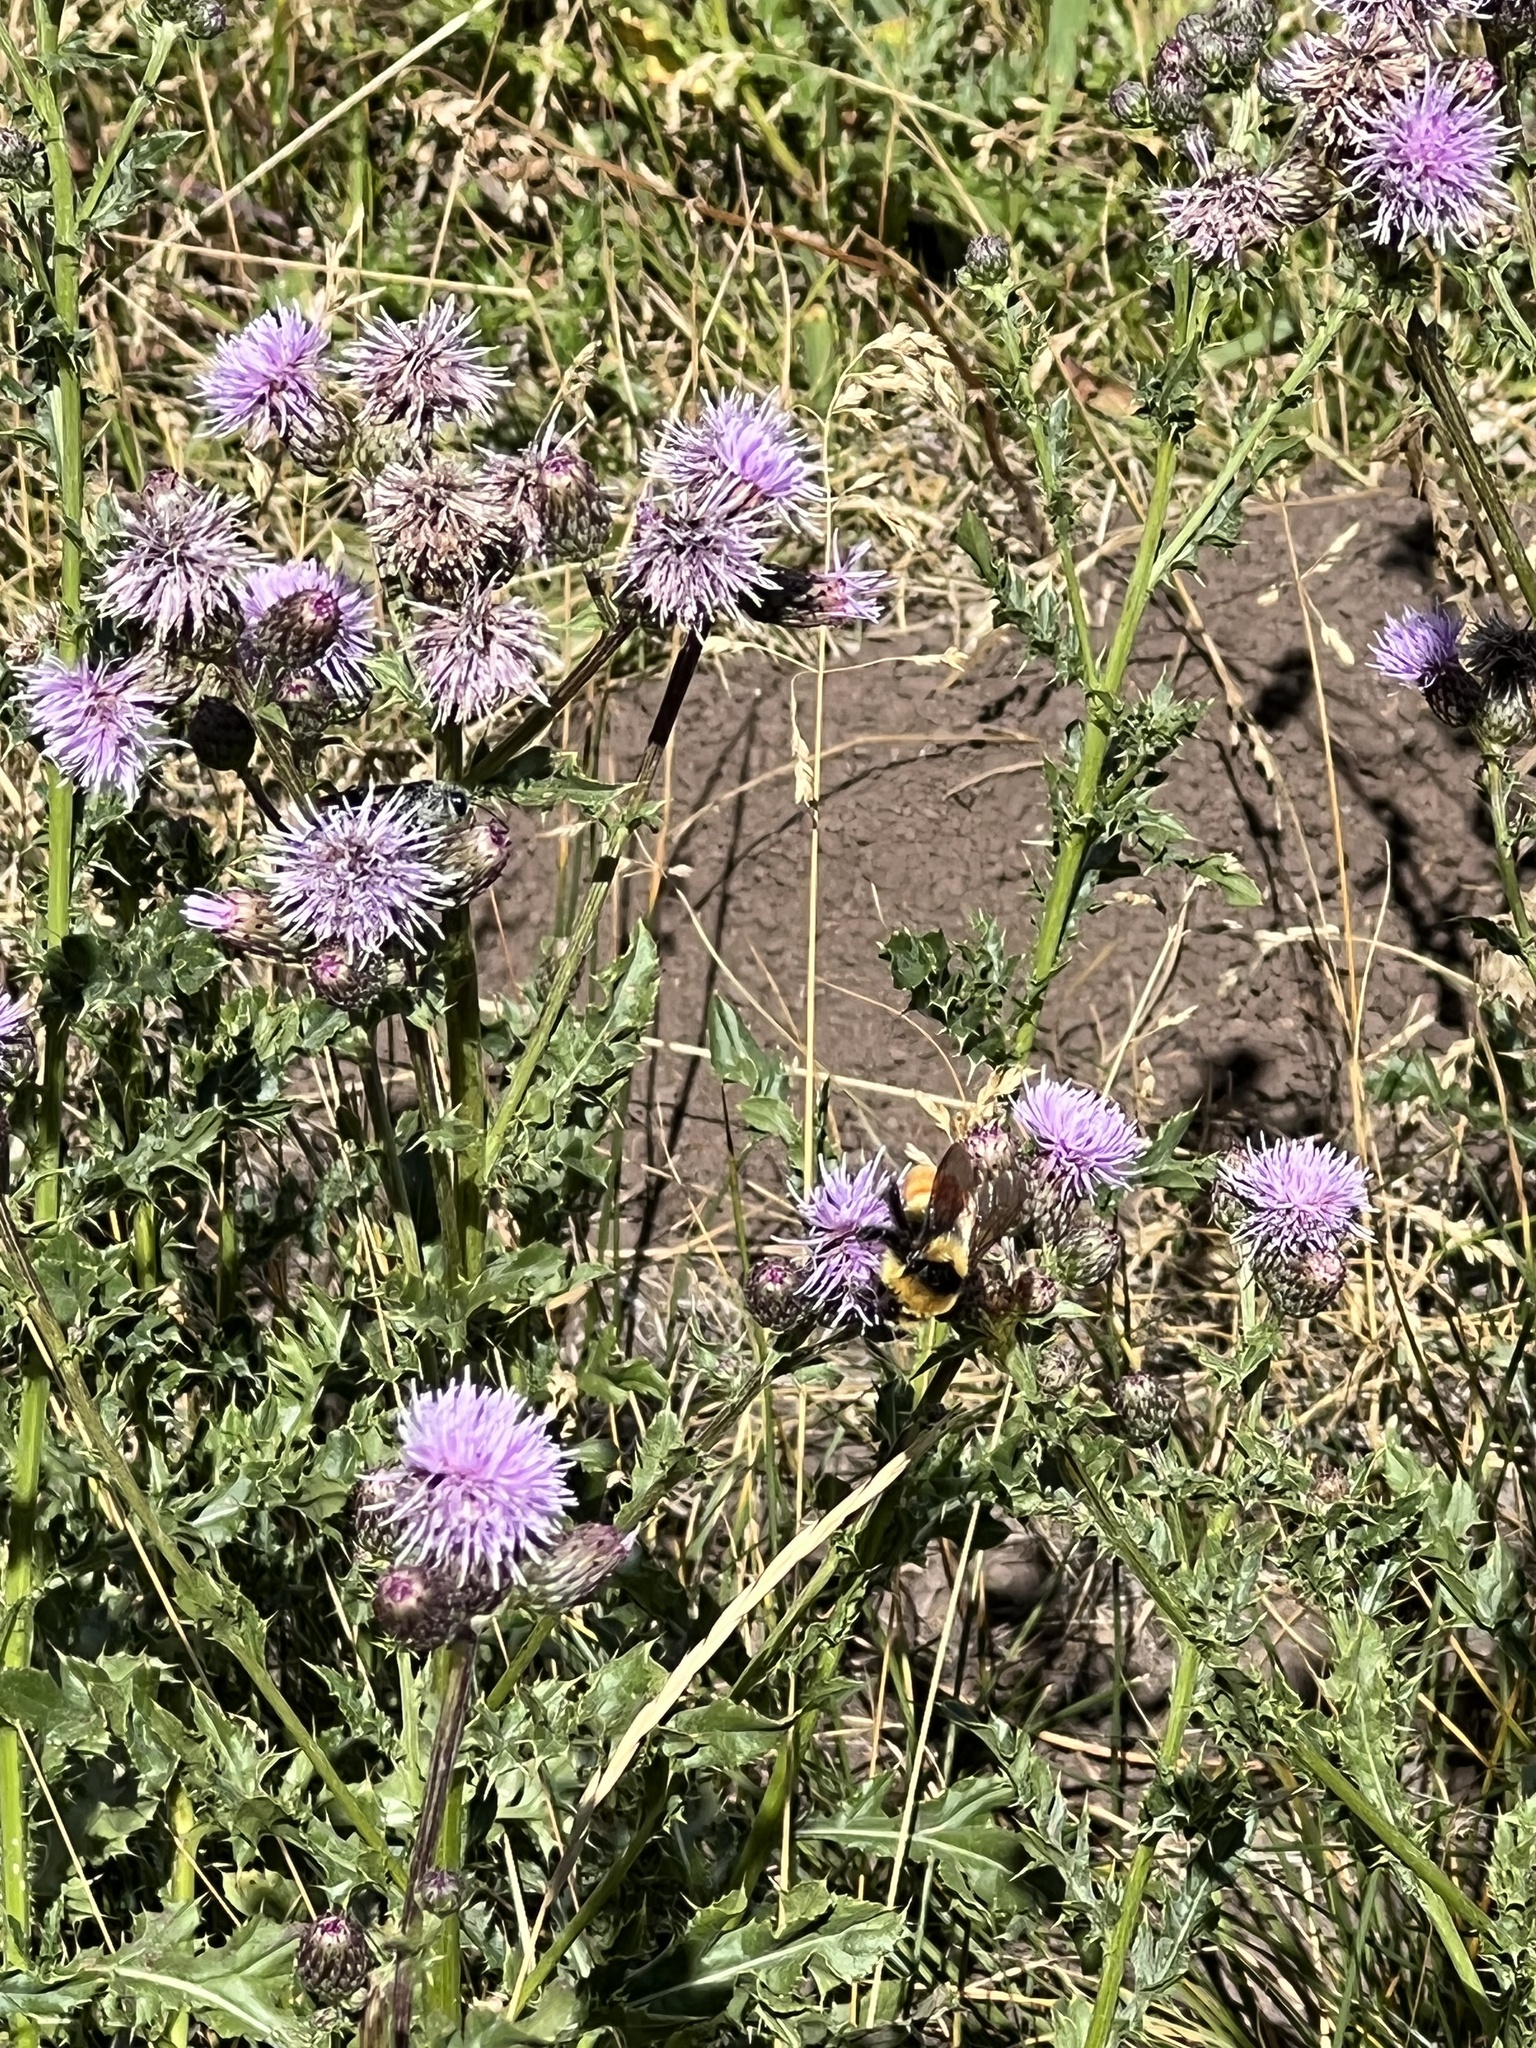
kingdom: Animalia
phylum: Arthropoda
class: Insecta
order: Hymenoptera
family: Apidae
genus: Bombus
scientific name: Bombus huntii
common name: Hunt bumble bee
